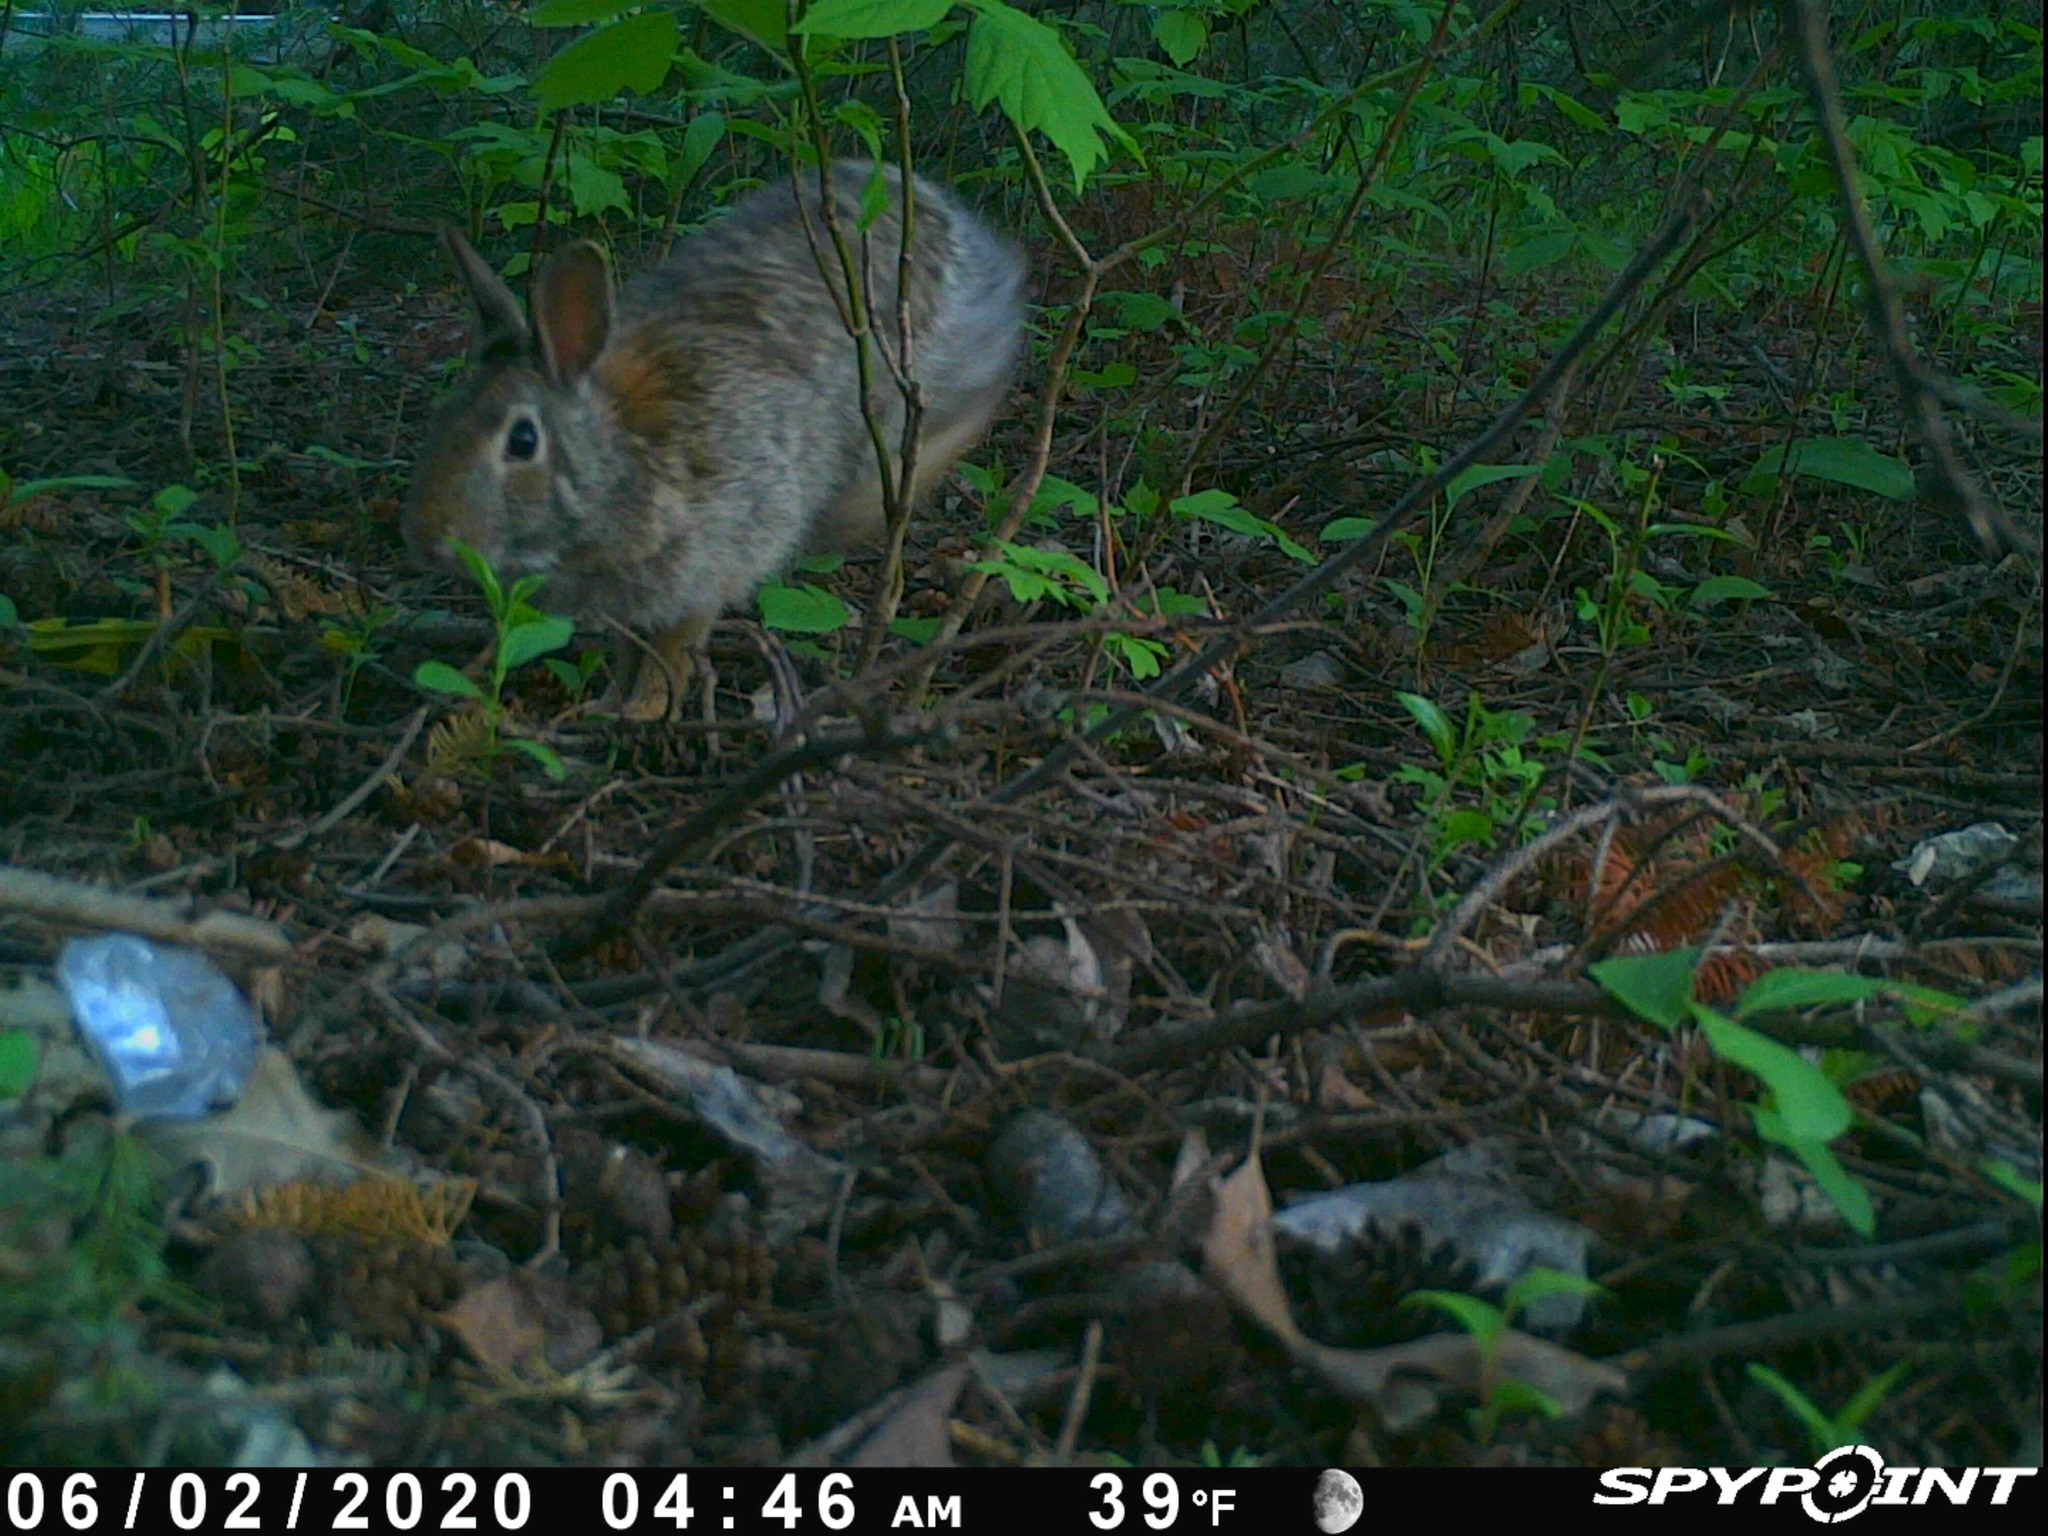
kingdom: Animalia
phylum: Chordata
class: Mammalia
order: Lagomorpha
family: Leporidae
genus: Sylvilagus
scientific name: Sylvilagus floridanus
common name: Eastern cottontail
